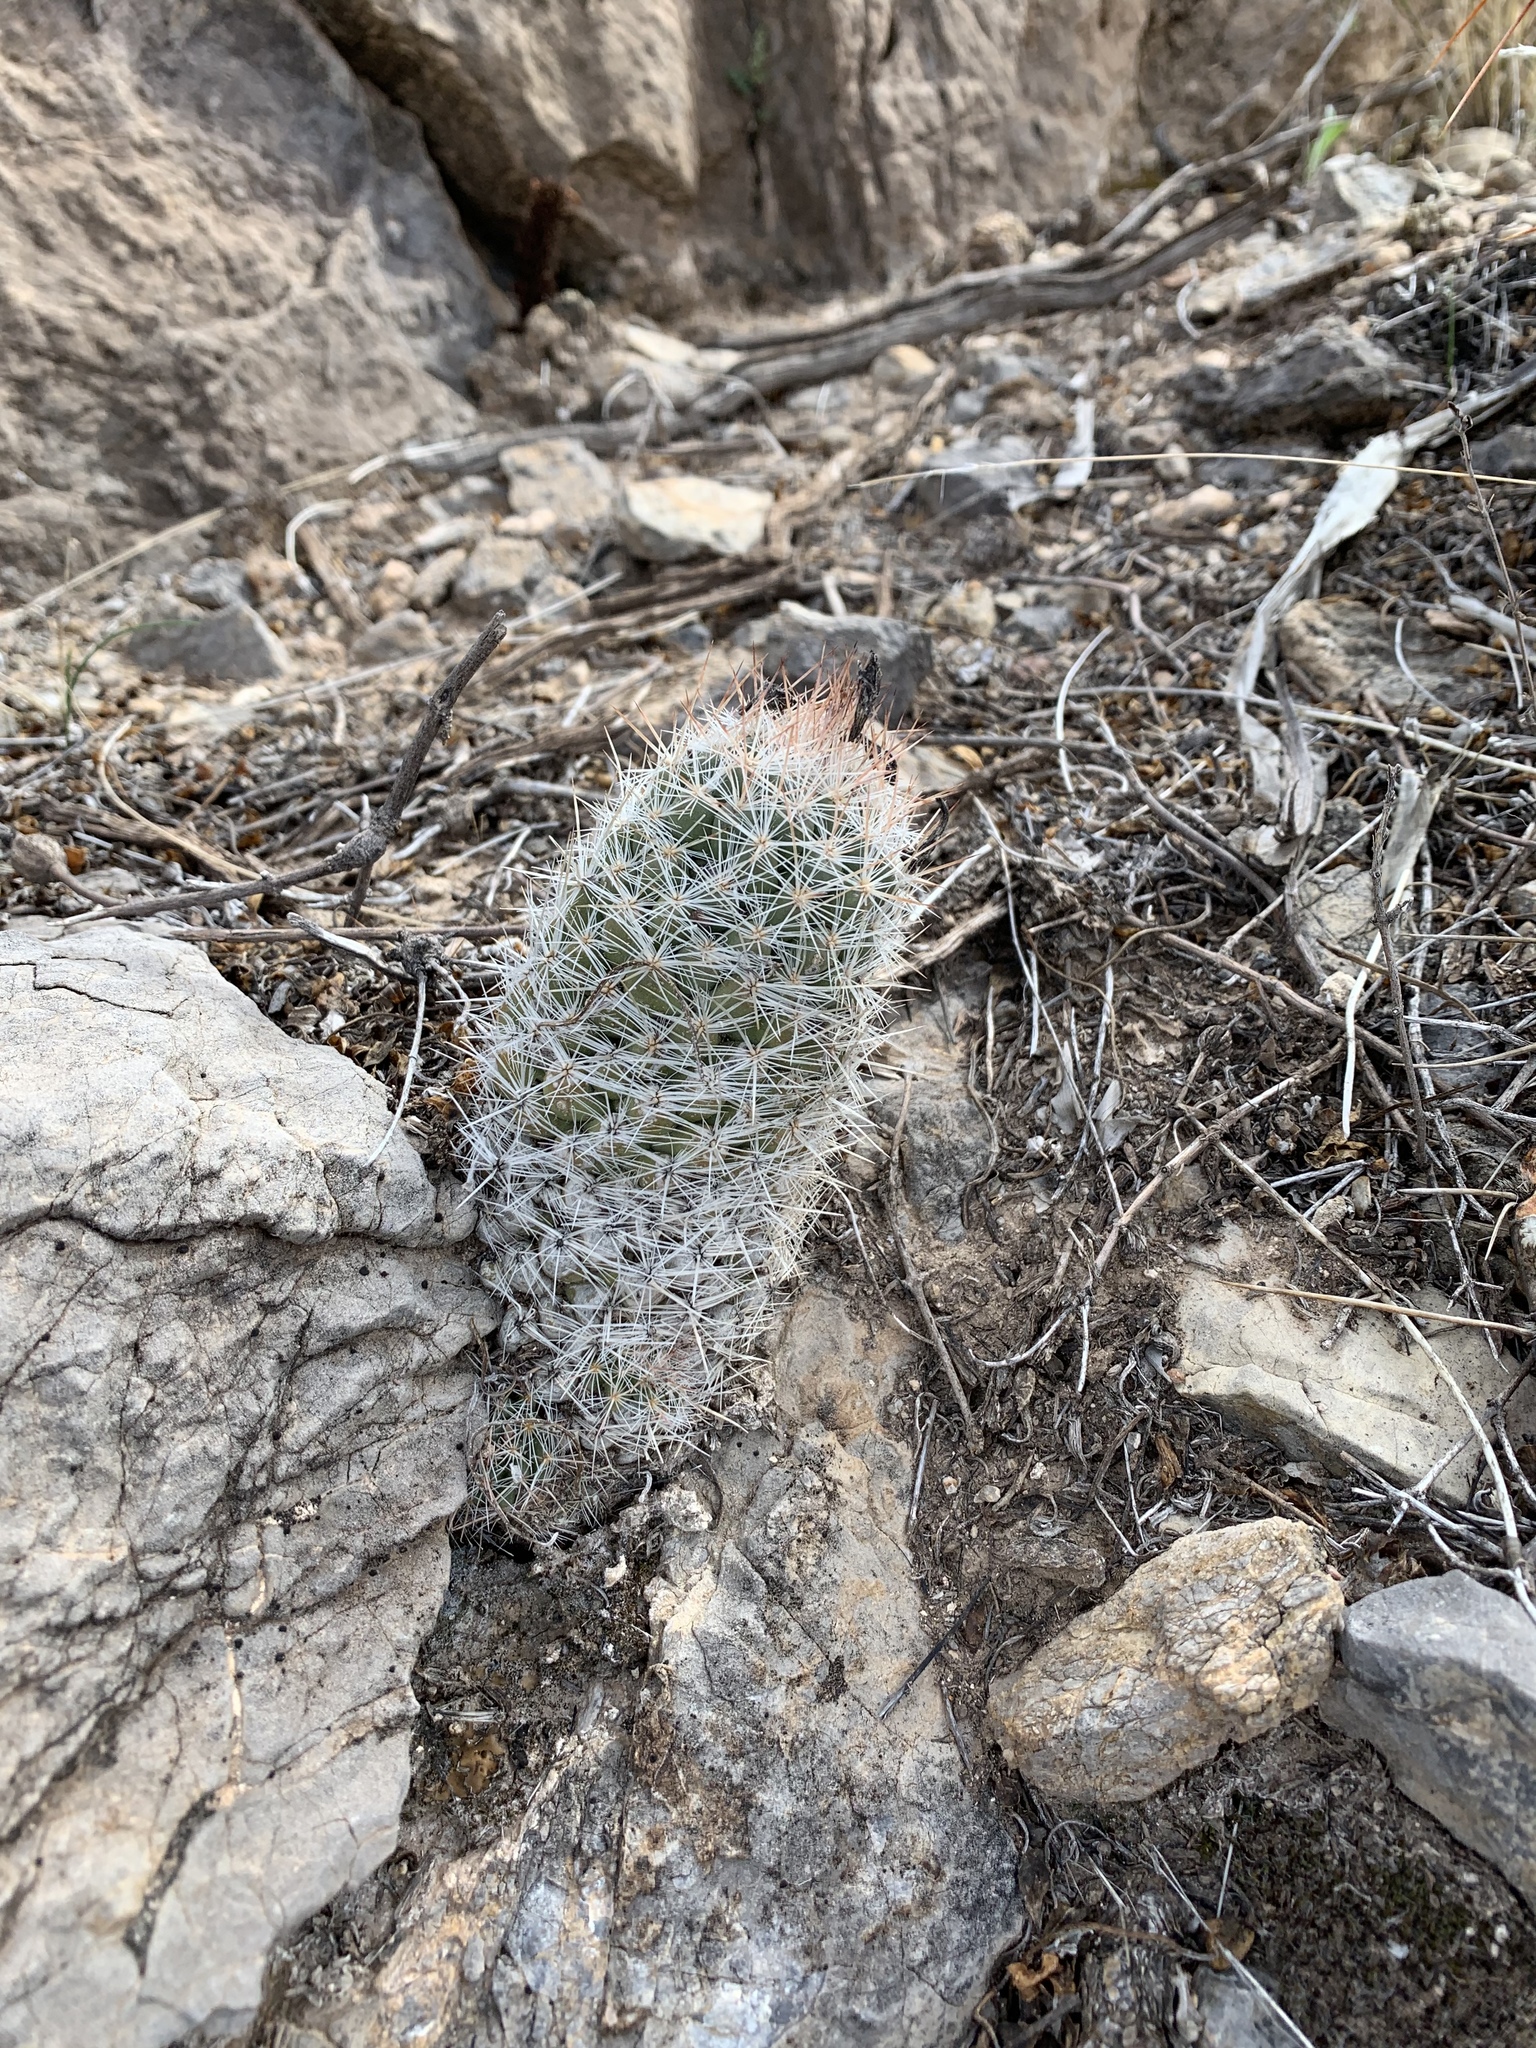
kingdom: Plantae
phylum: Tracheophyta
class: Magnoliopsida
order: Caryophyllales
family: Cactaceae
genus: Pelecyphora
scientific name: Pelecyphora tuberculosa
